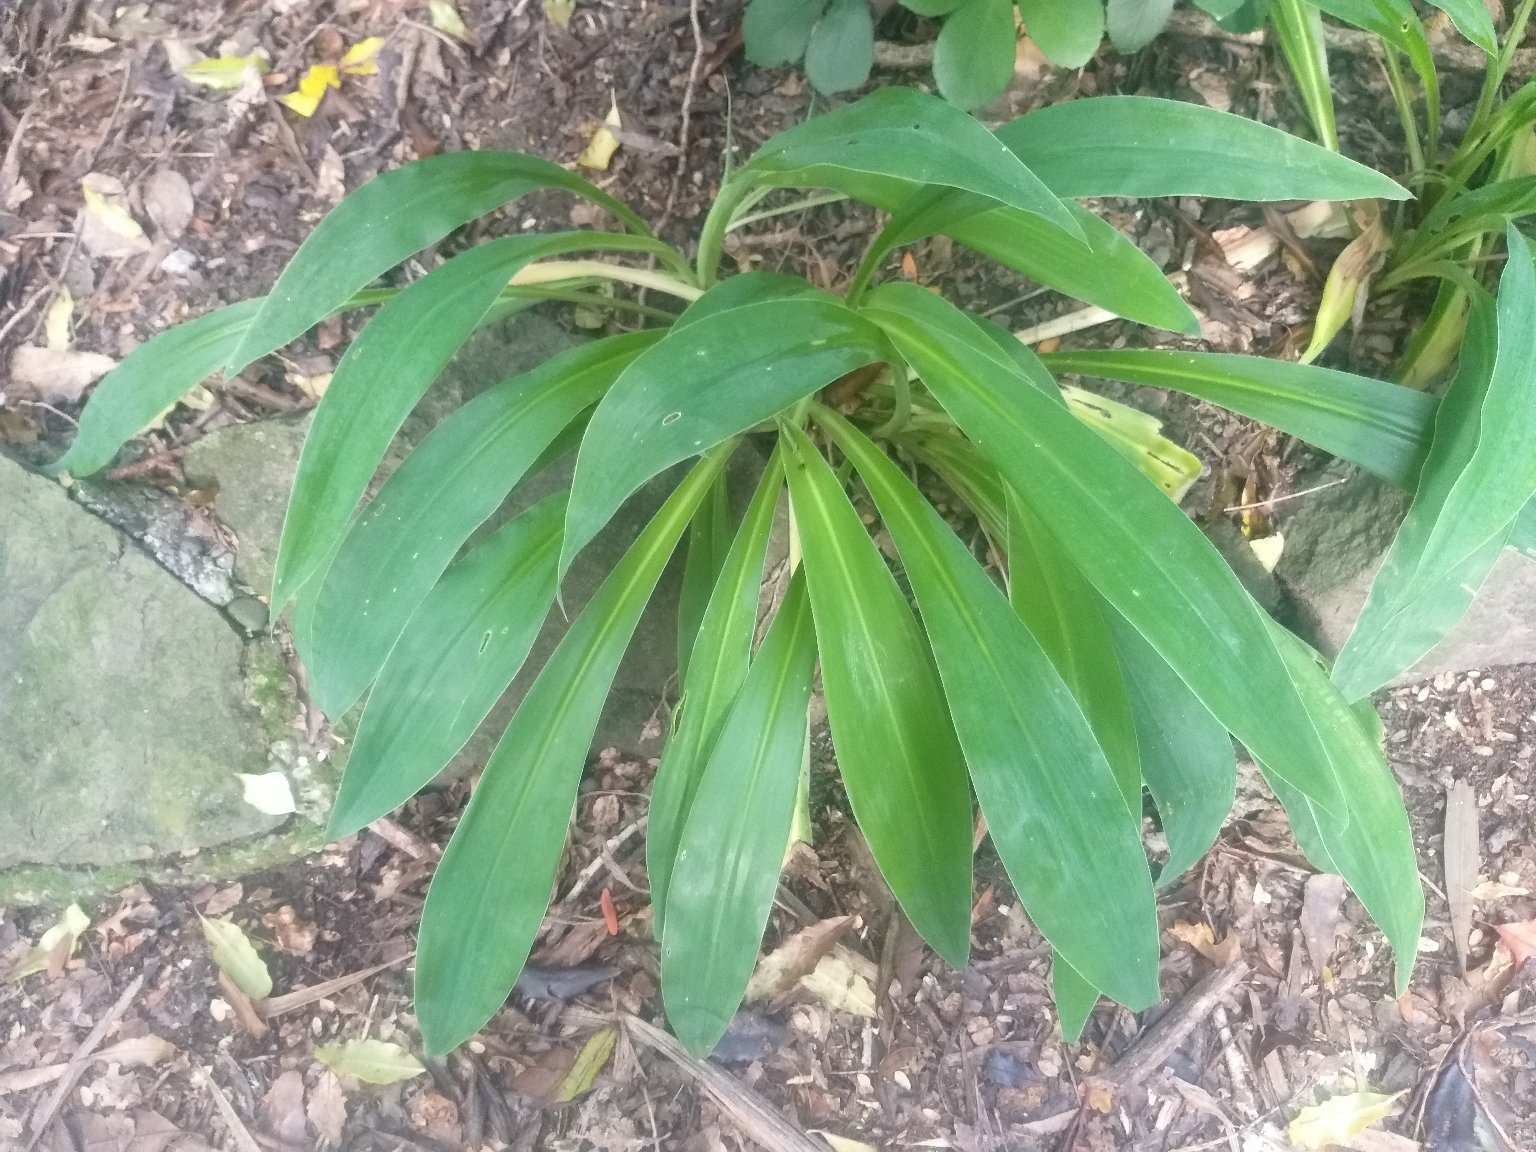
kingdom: Plantae
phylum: Tracheophyta
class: Liliopsida
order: Asparagales
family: Asparagaceae
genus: Arthropodium
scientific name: Arthropodium cirratum
